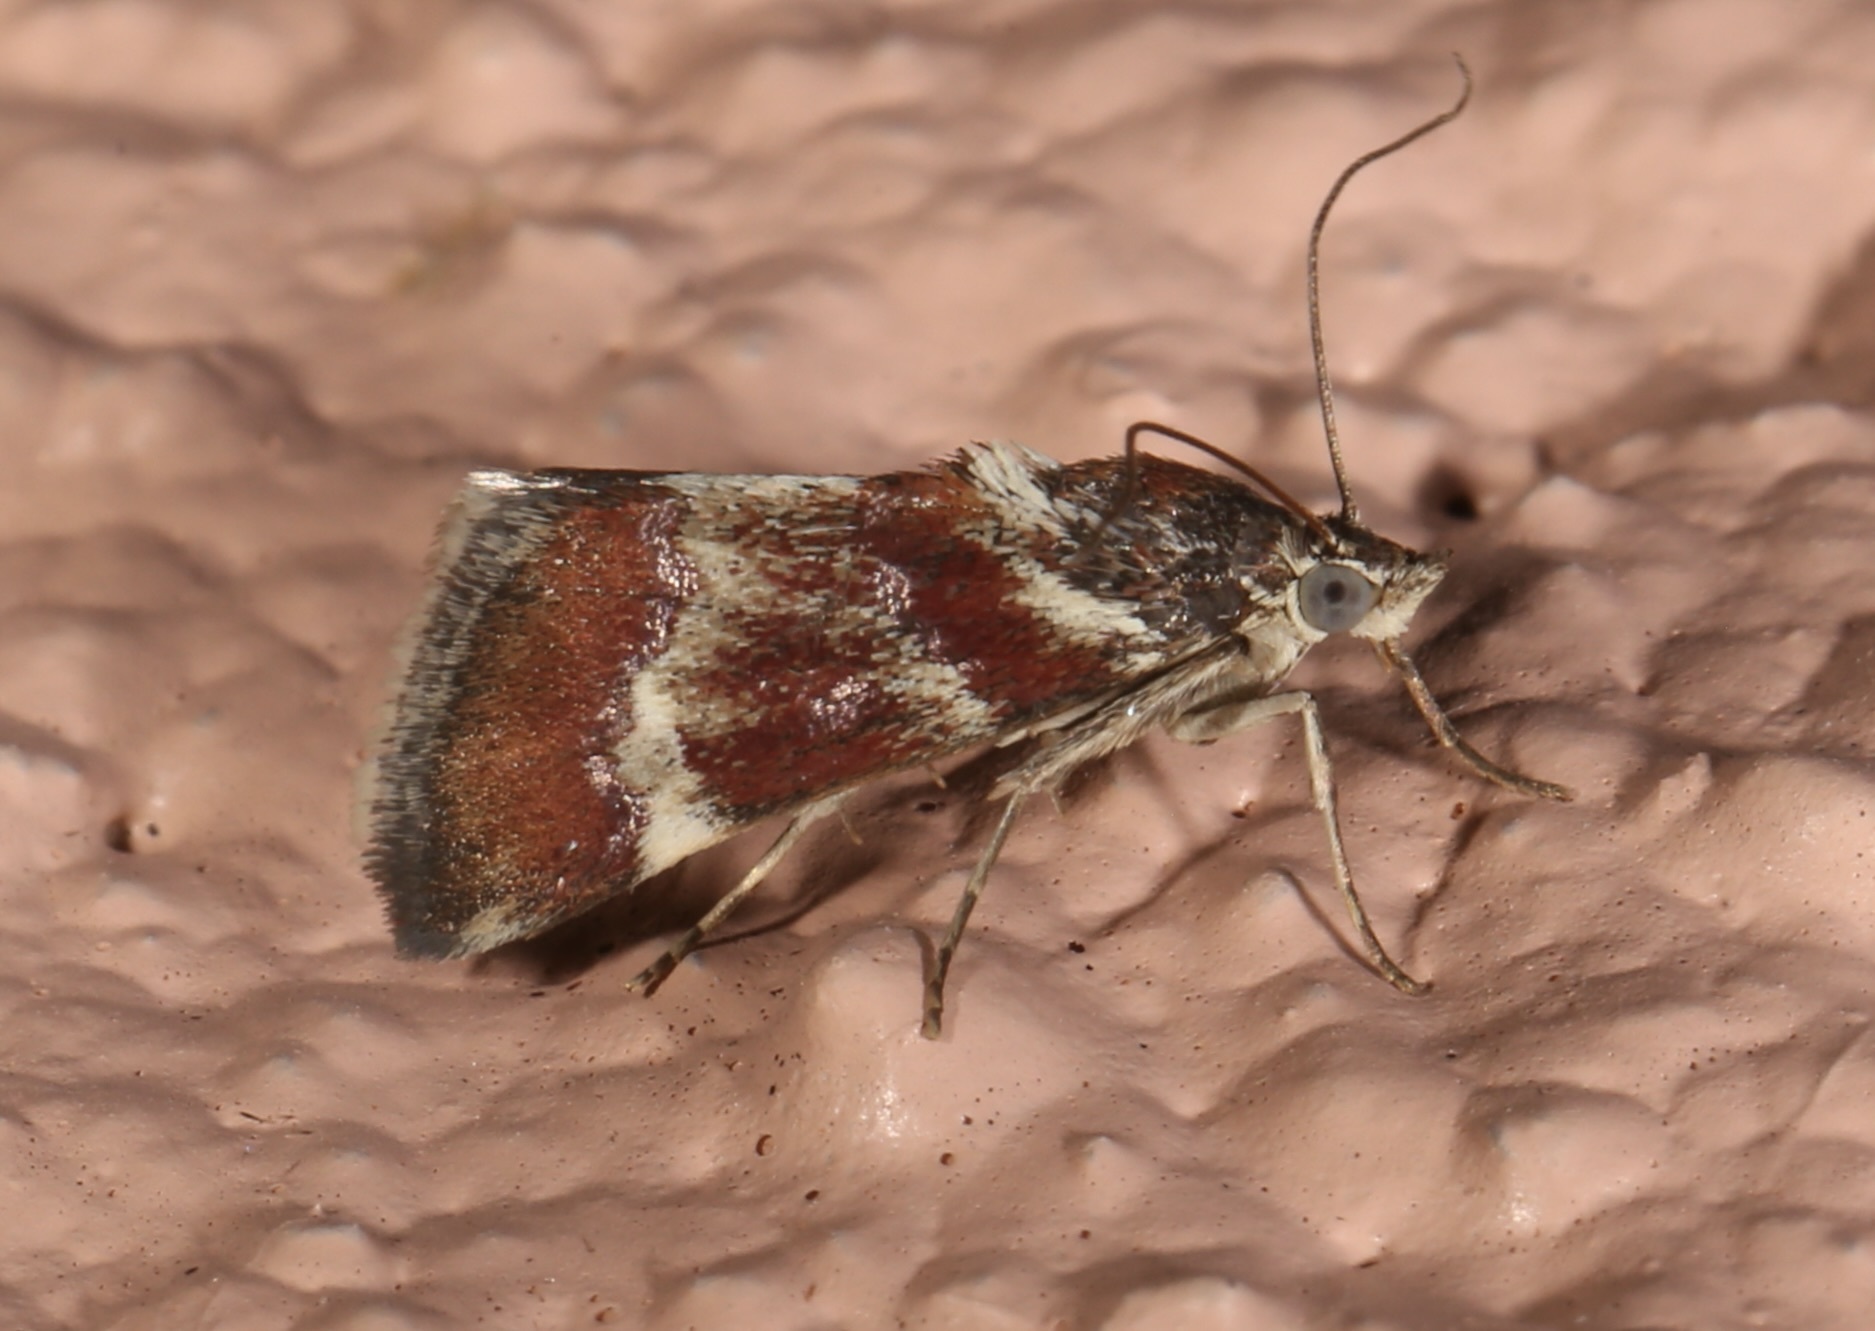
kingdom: Animalia
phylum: Arthropoda
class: Insecta
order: Lepidoptera
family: Crambidae
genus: Noctuelia
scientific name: Noctuelia Mimoschinia rufofascialis
